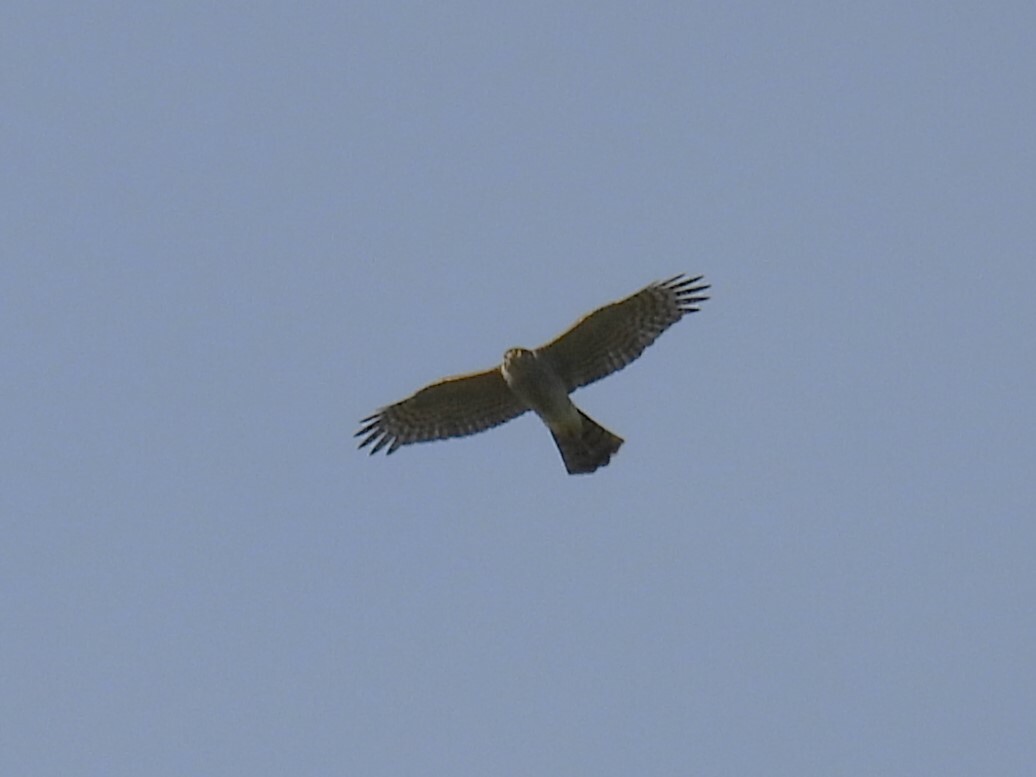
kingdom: Animalia
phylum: Chordata
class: Aves
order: Accipitriformes
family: Accipitridae
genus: Accipiter
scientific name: Accipiter nisus
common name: Eurasian sparrowhawk
